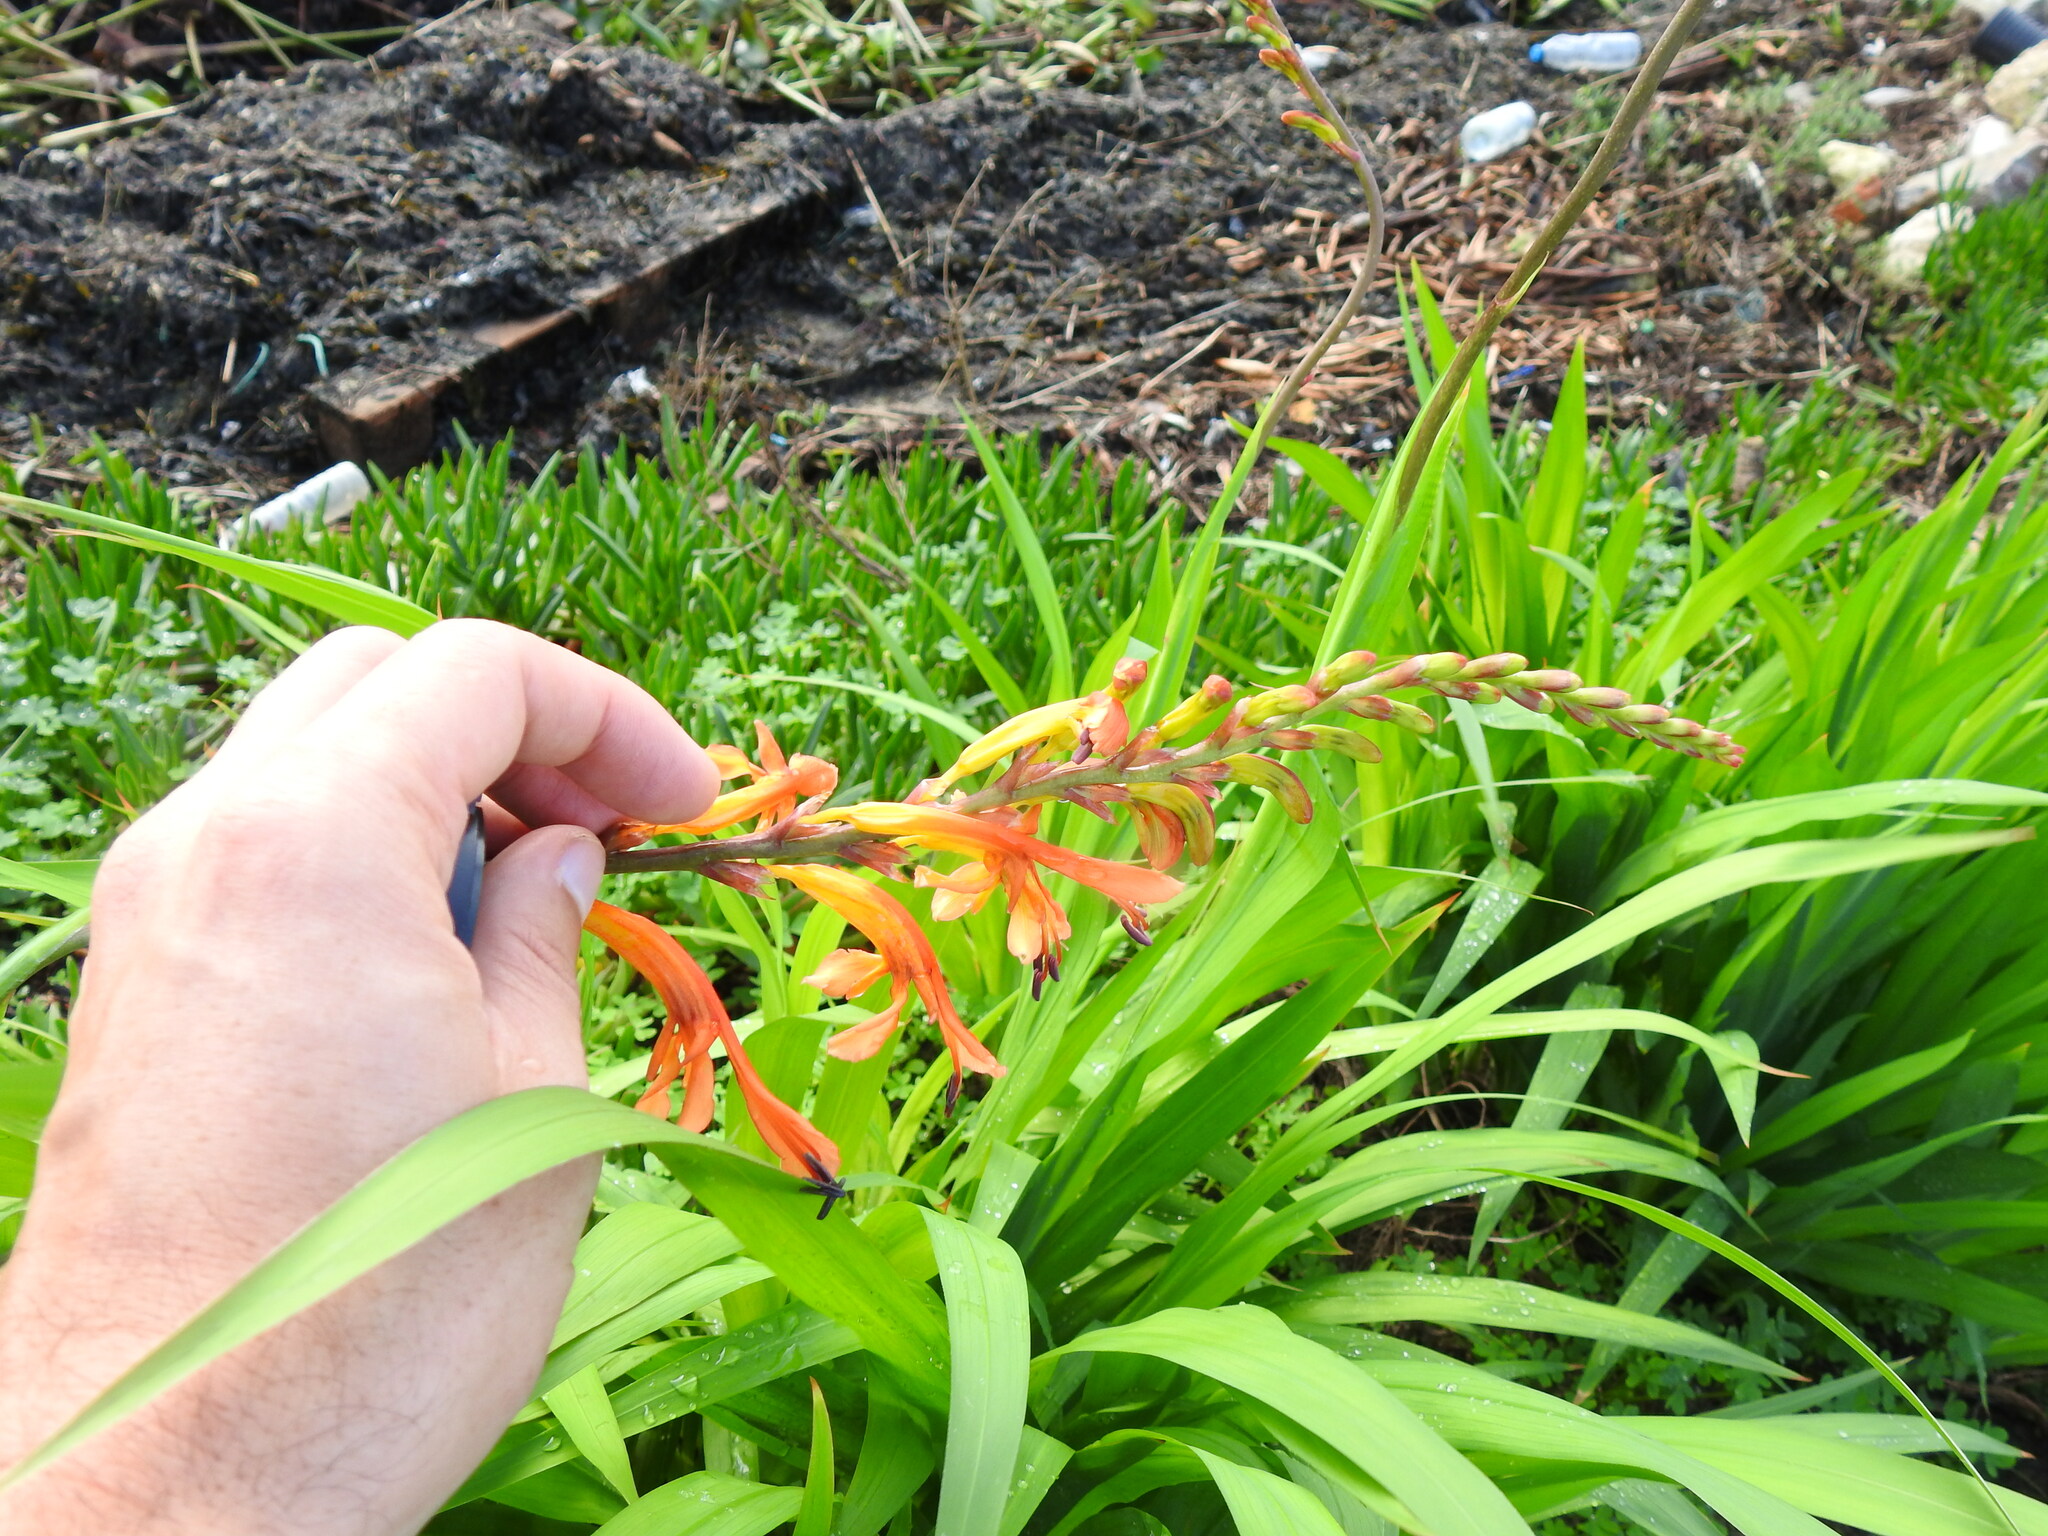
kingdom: Plantae
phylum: Tracheophyta
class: Liliopsida
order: Asparagales
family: Iridaceae
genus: Chasmanthe
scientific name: Chasmanthe floribunda
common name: African cornflag
